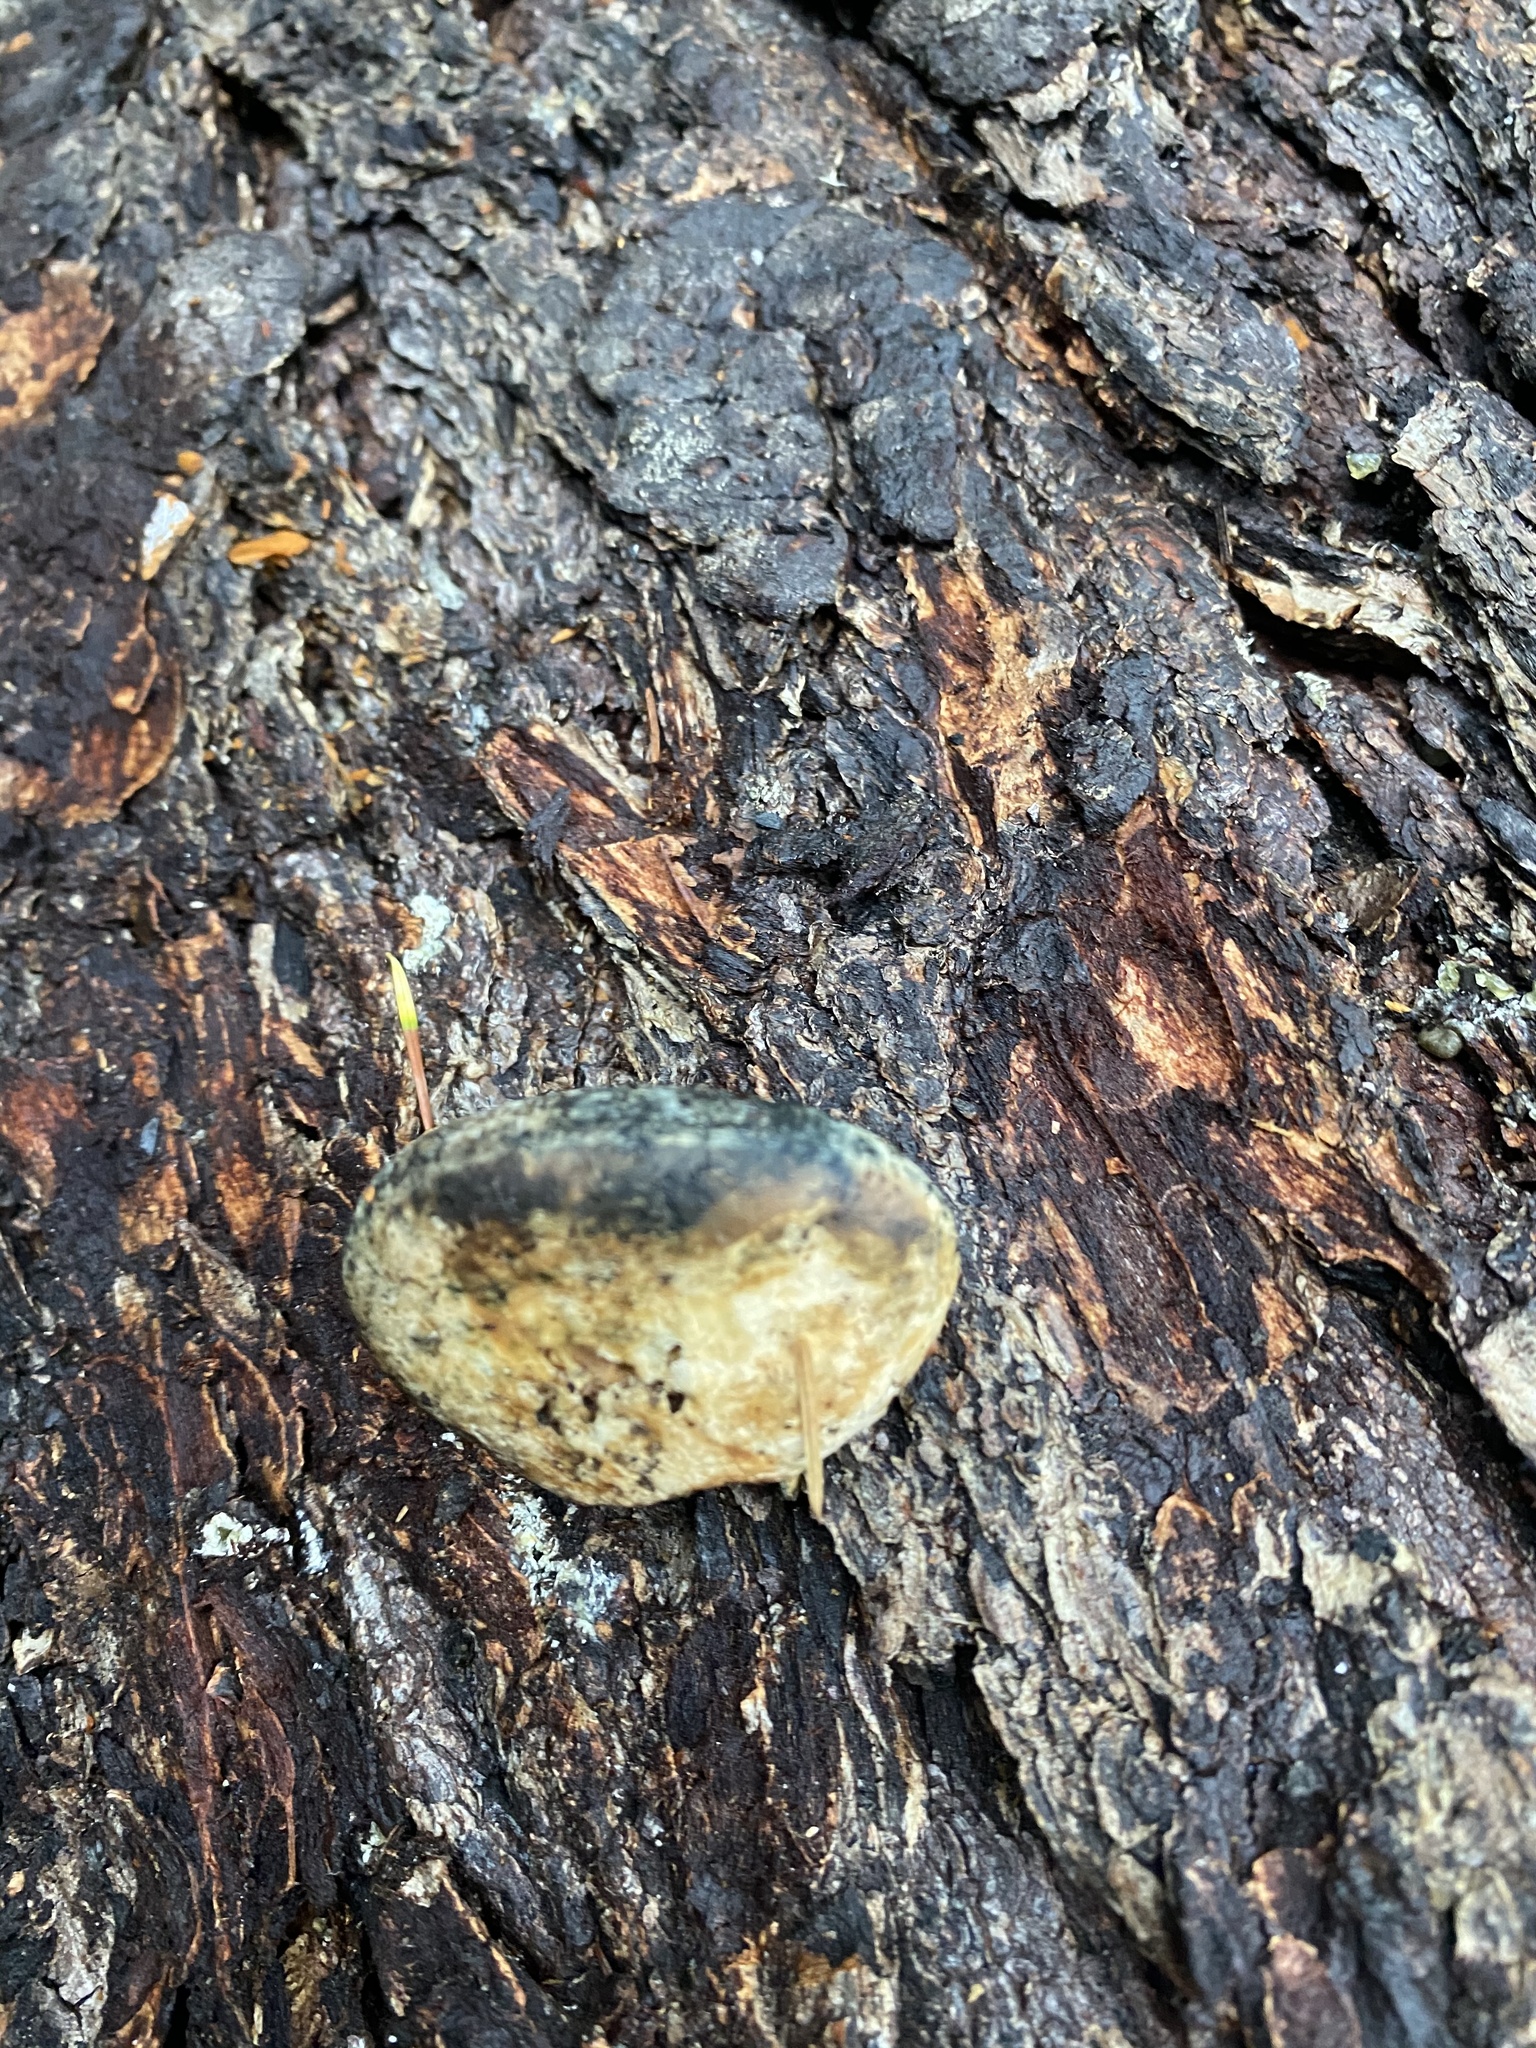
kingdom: Fungi
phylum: Basidiomycota
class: Agaricomycetes
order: Polyporales
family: Polyporaceae
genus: Cryptoporus
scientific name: Cryptoporus volvatus
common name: Veiled polypore
